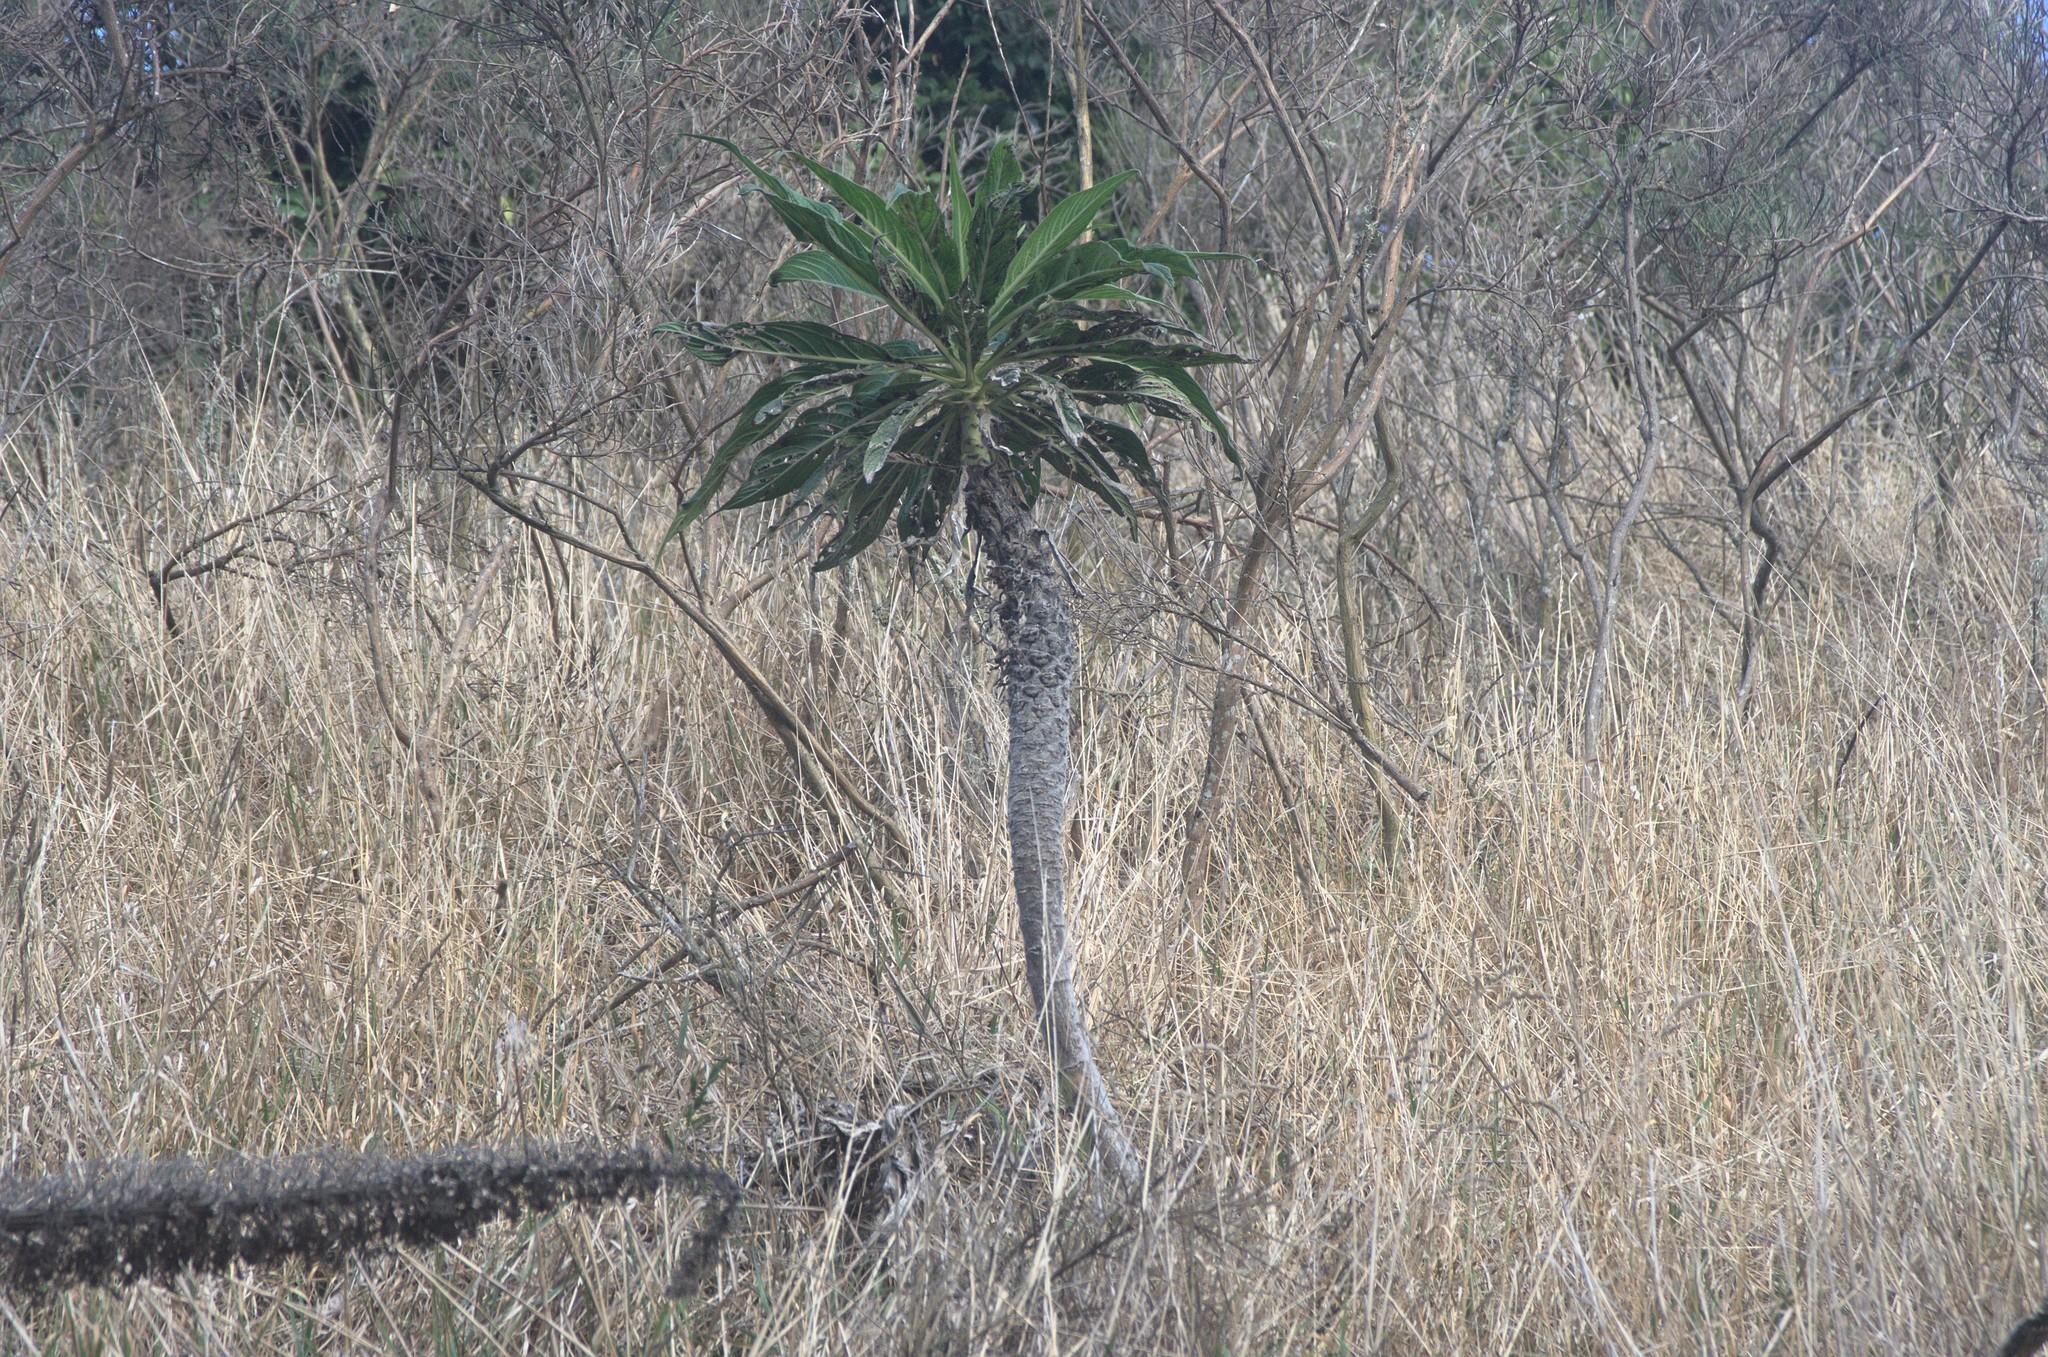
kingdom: Plantae
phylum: Tracheophyta
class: Magnoliopsida
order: Boraginales
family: Boraginaceae
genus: Echium
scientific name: Echium pininana
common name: Giant viper's-bugloss
